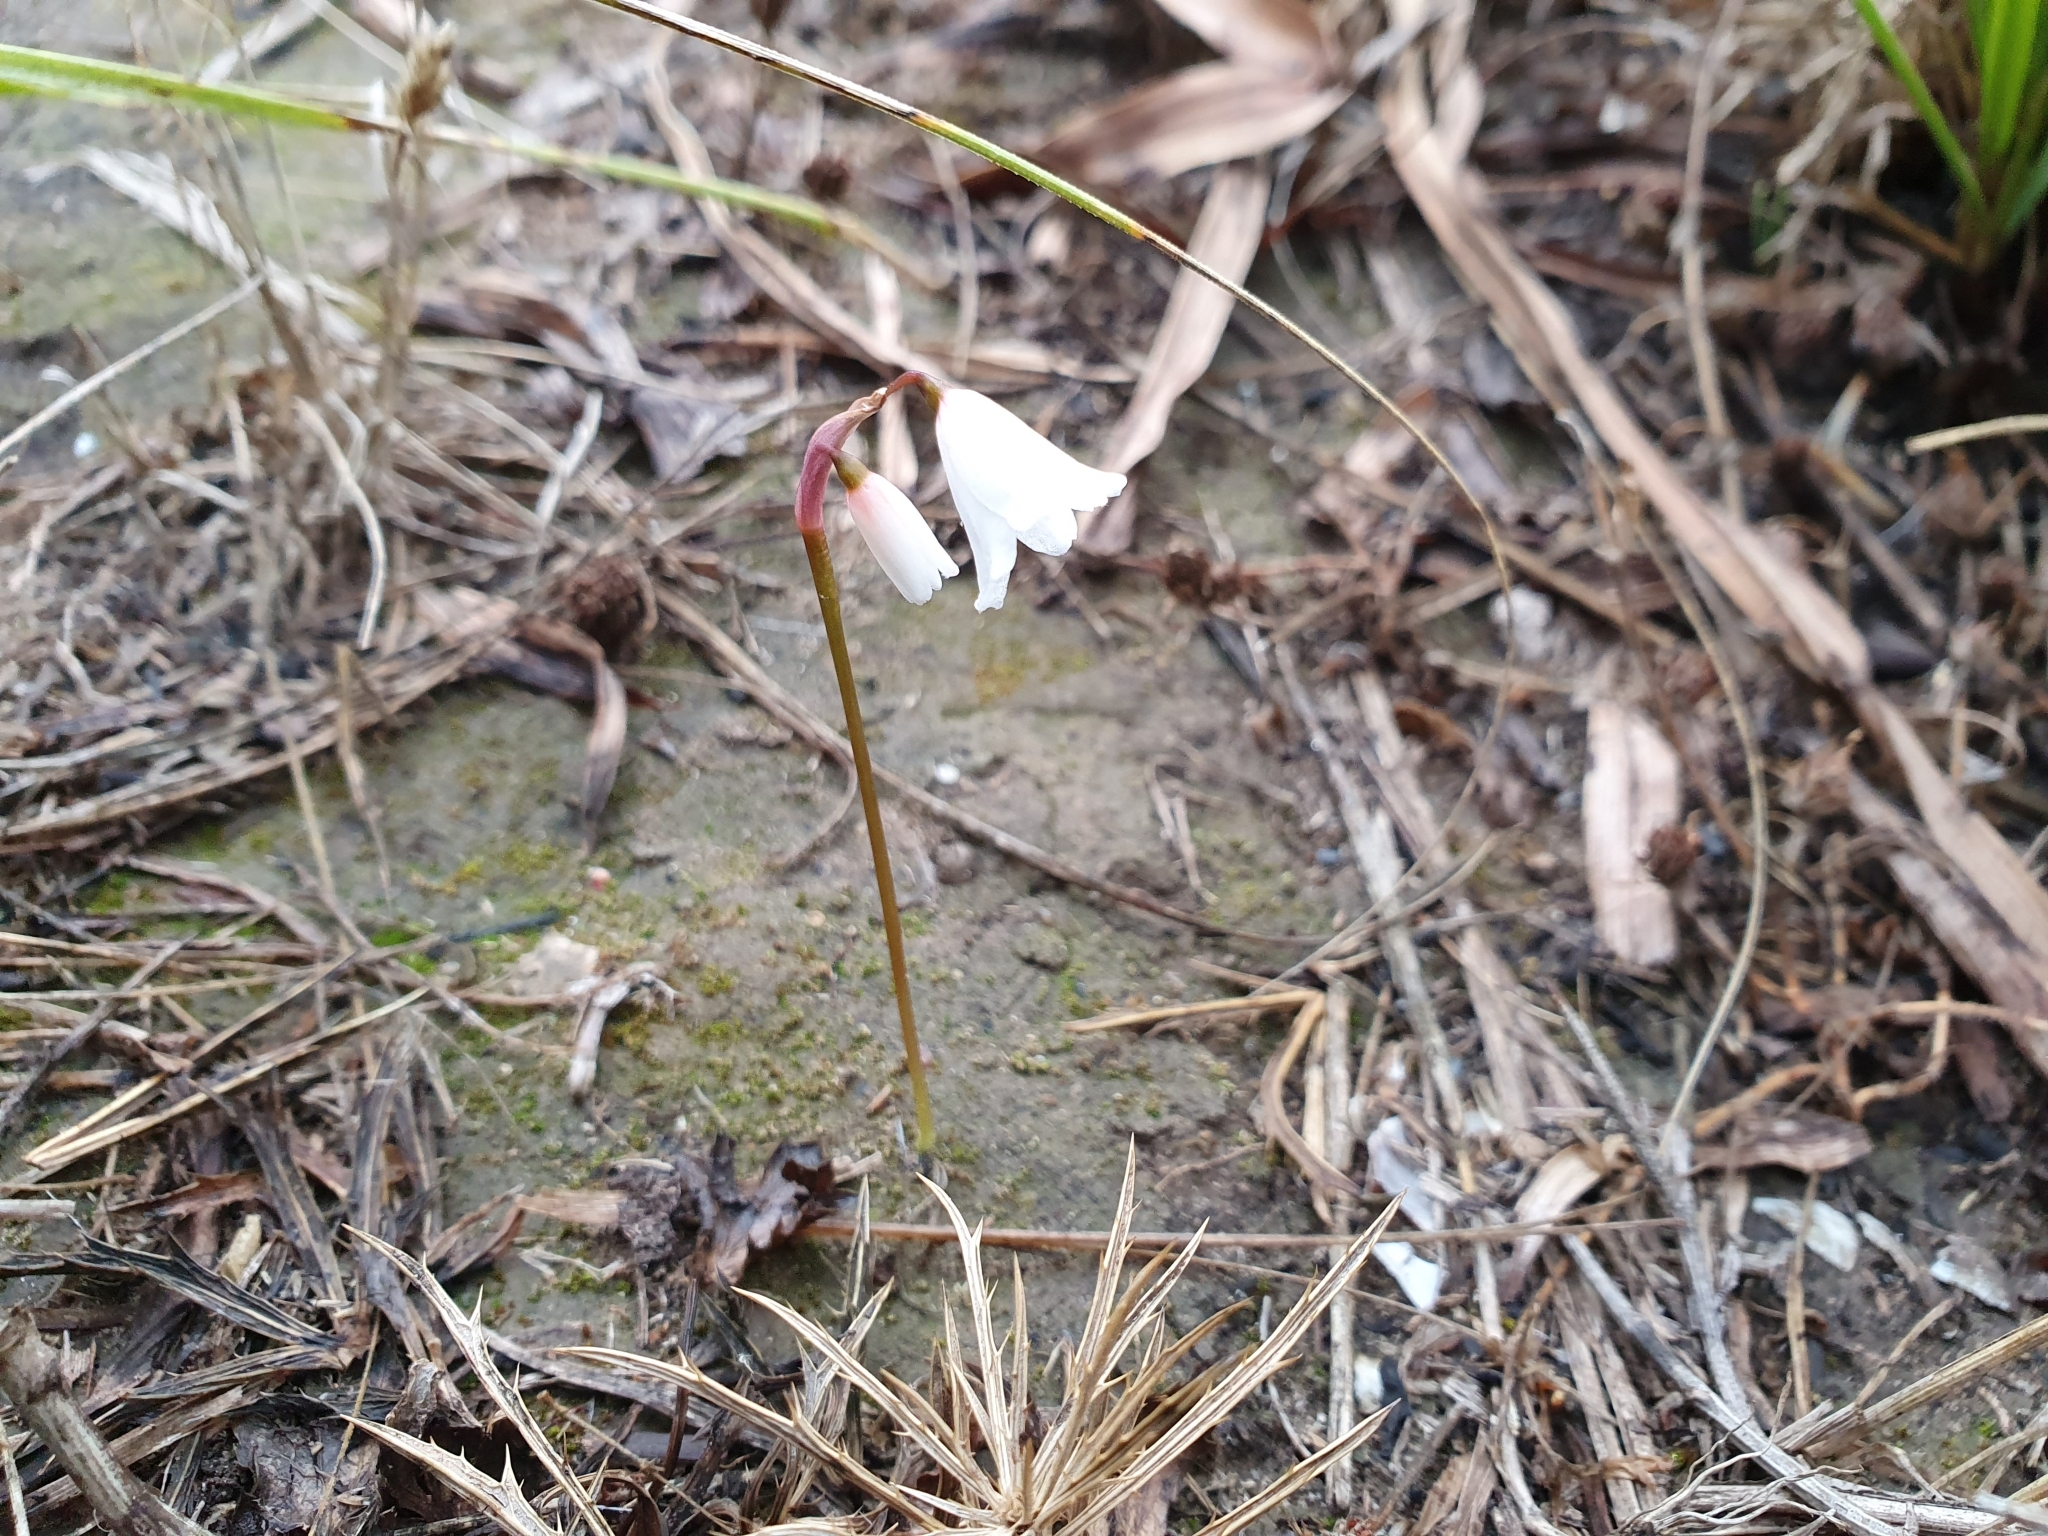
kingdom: Plantae
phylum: Tracheophyta
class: Liliopsida
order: Asparagales
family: Amaryllidaceae
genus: Acis
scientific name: Acis autumnalis
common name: Autumn snowflake
